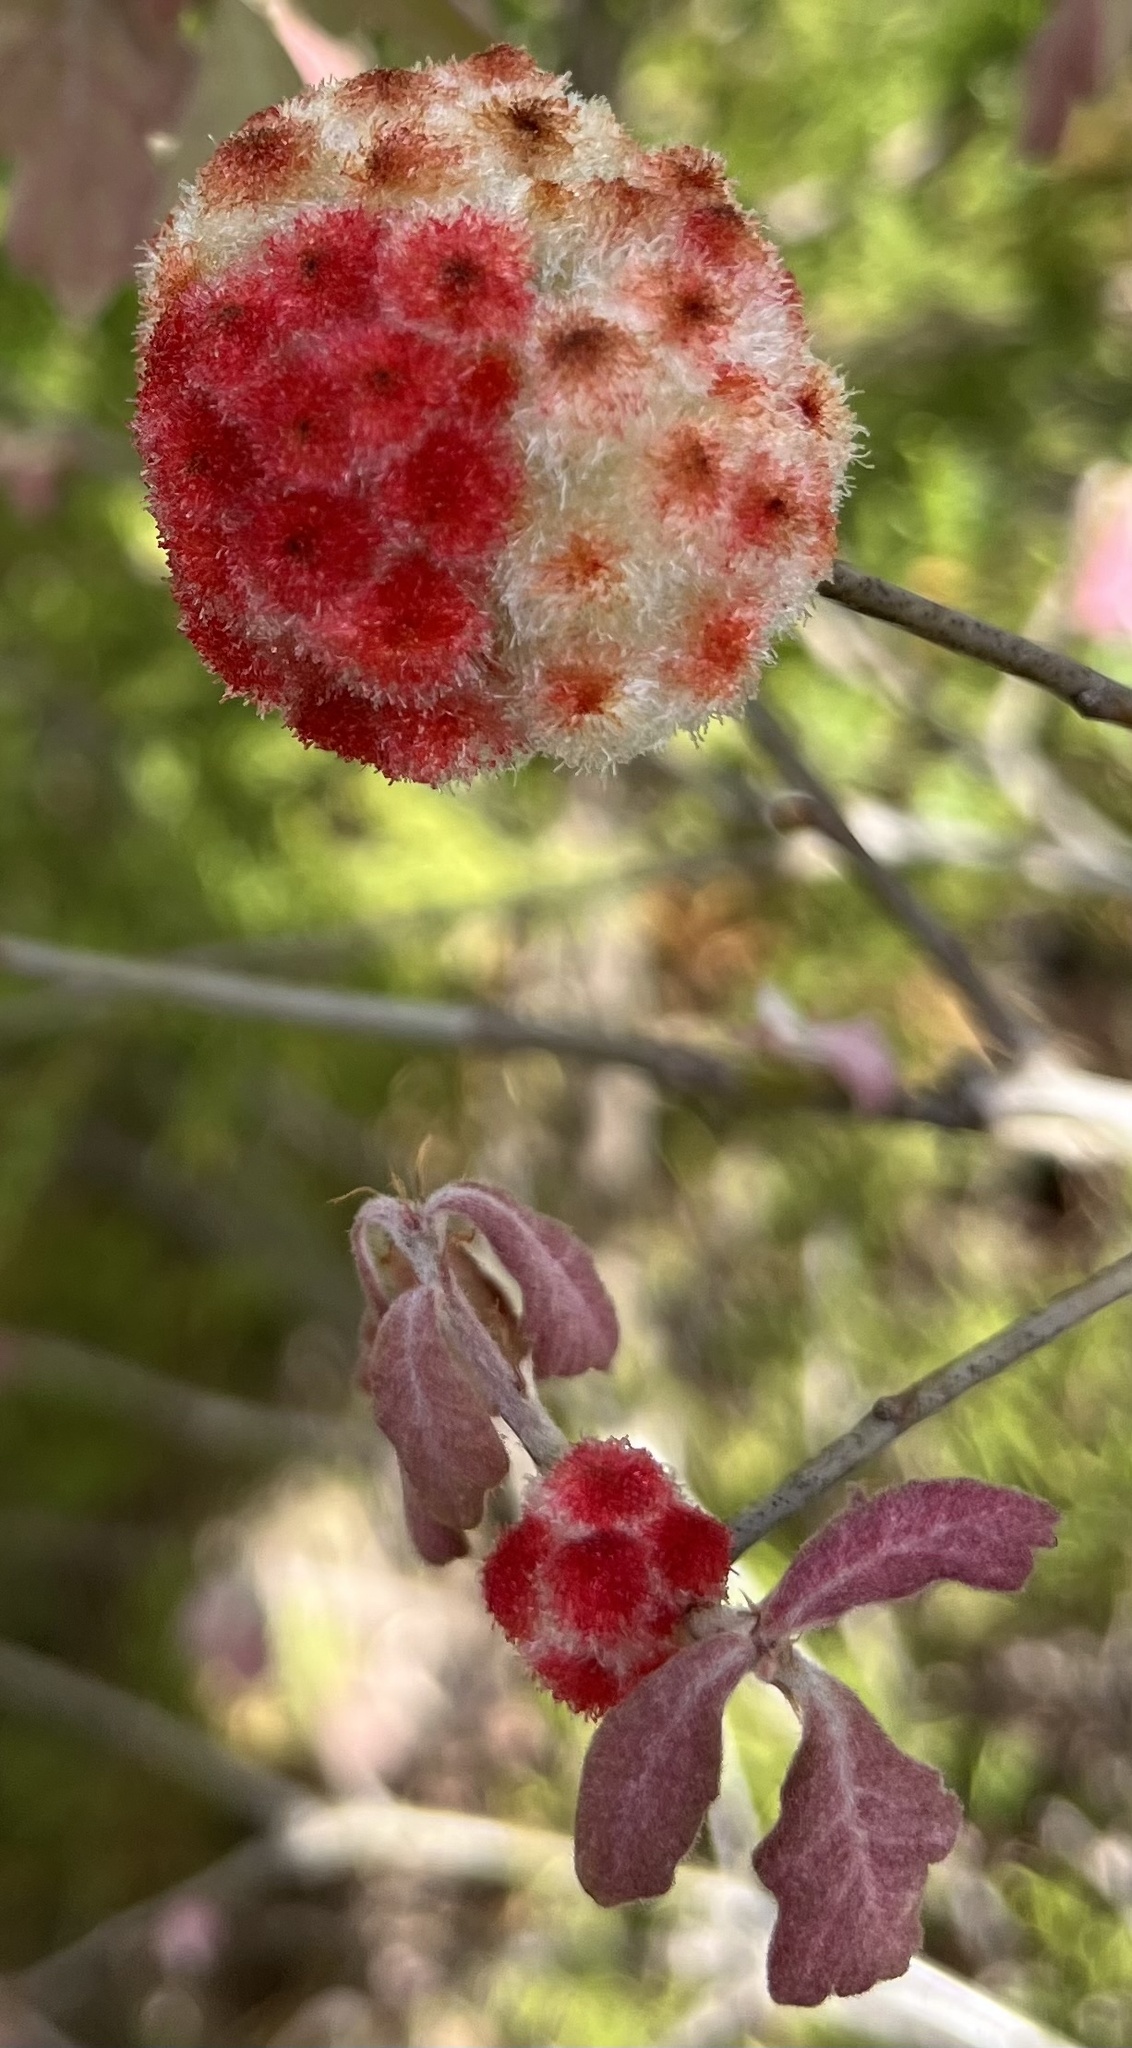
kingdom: Animalia
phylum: Arthropoda
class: Insecta
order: Hymenoptera
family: Cynipidae
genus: Callirhytis
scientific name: Callirhytis
